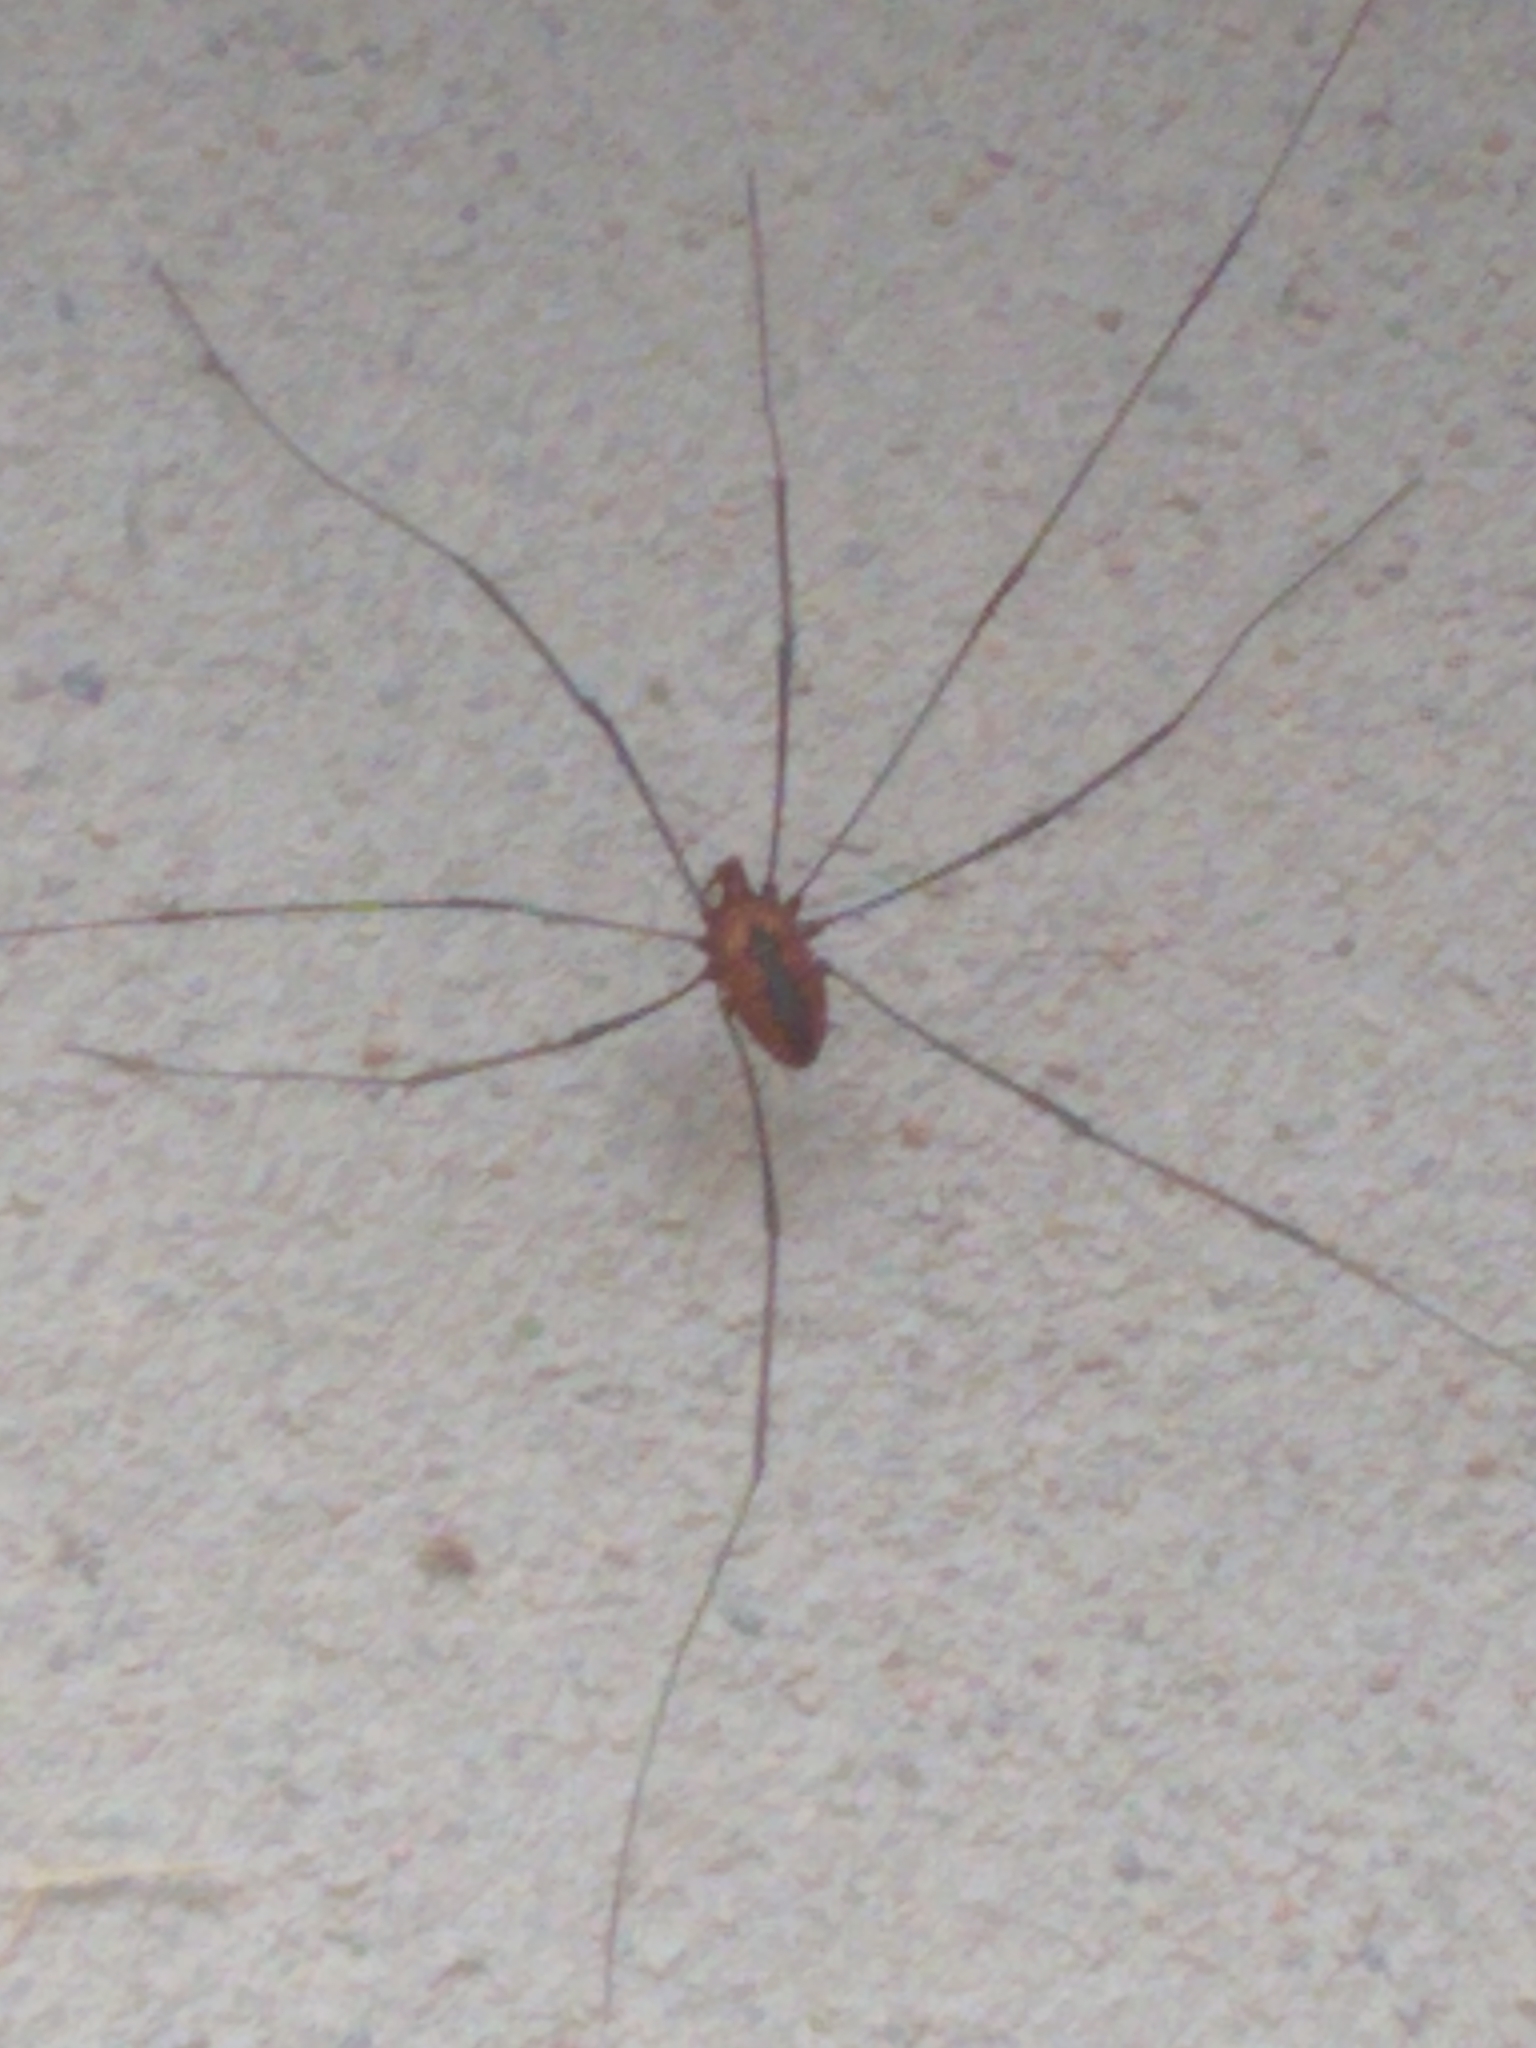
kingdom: Animalia
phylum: Arthropoda
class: Arachnida
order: Opiliones
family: Sclerosomatidae
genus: Leiobunum
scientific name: Leiobunum vittatum
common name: Eastern harvestman
